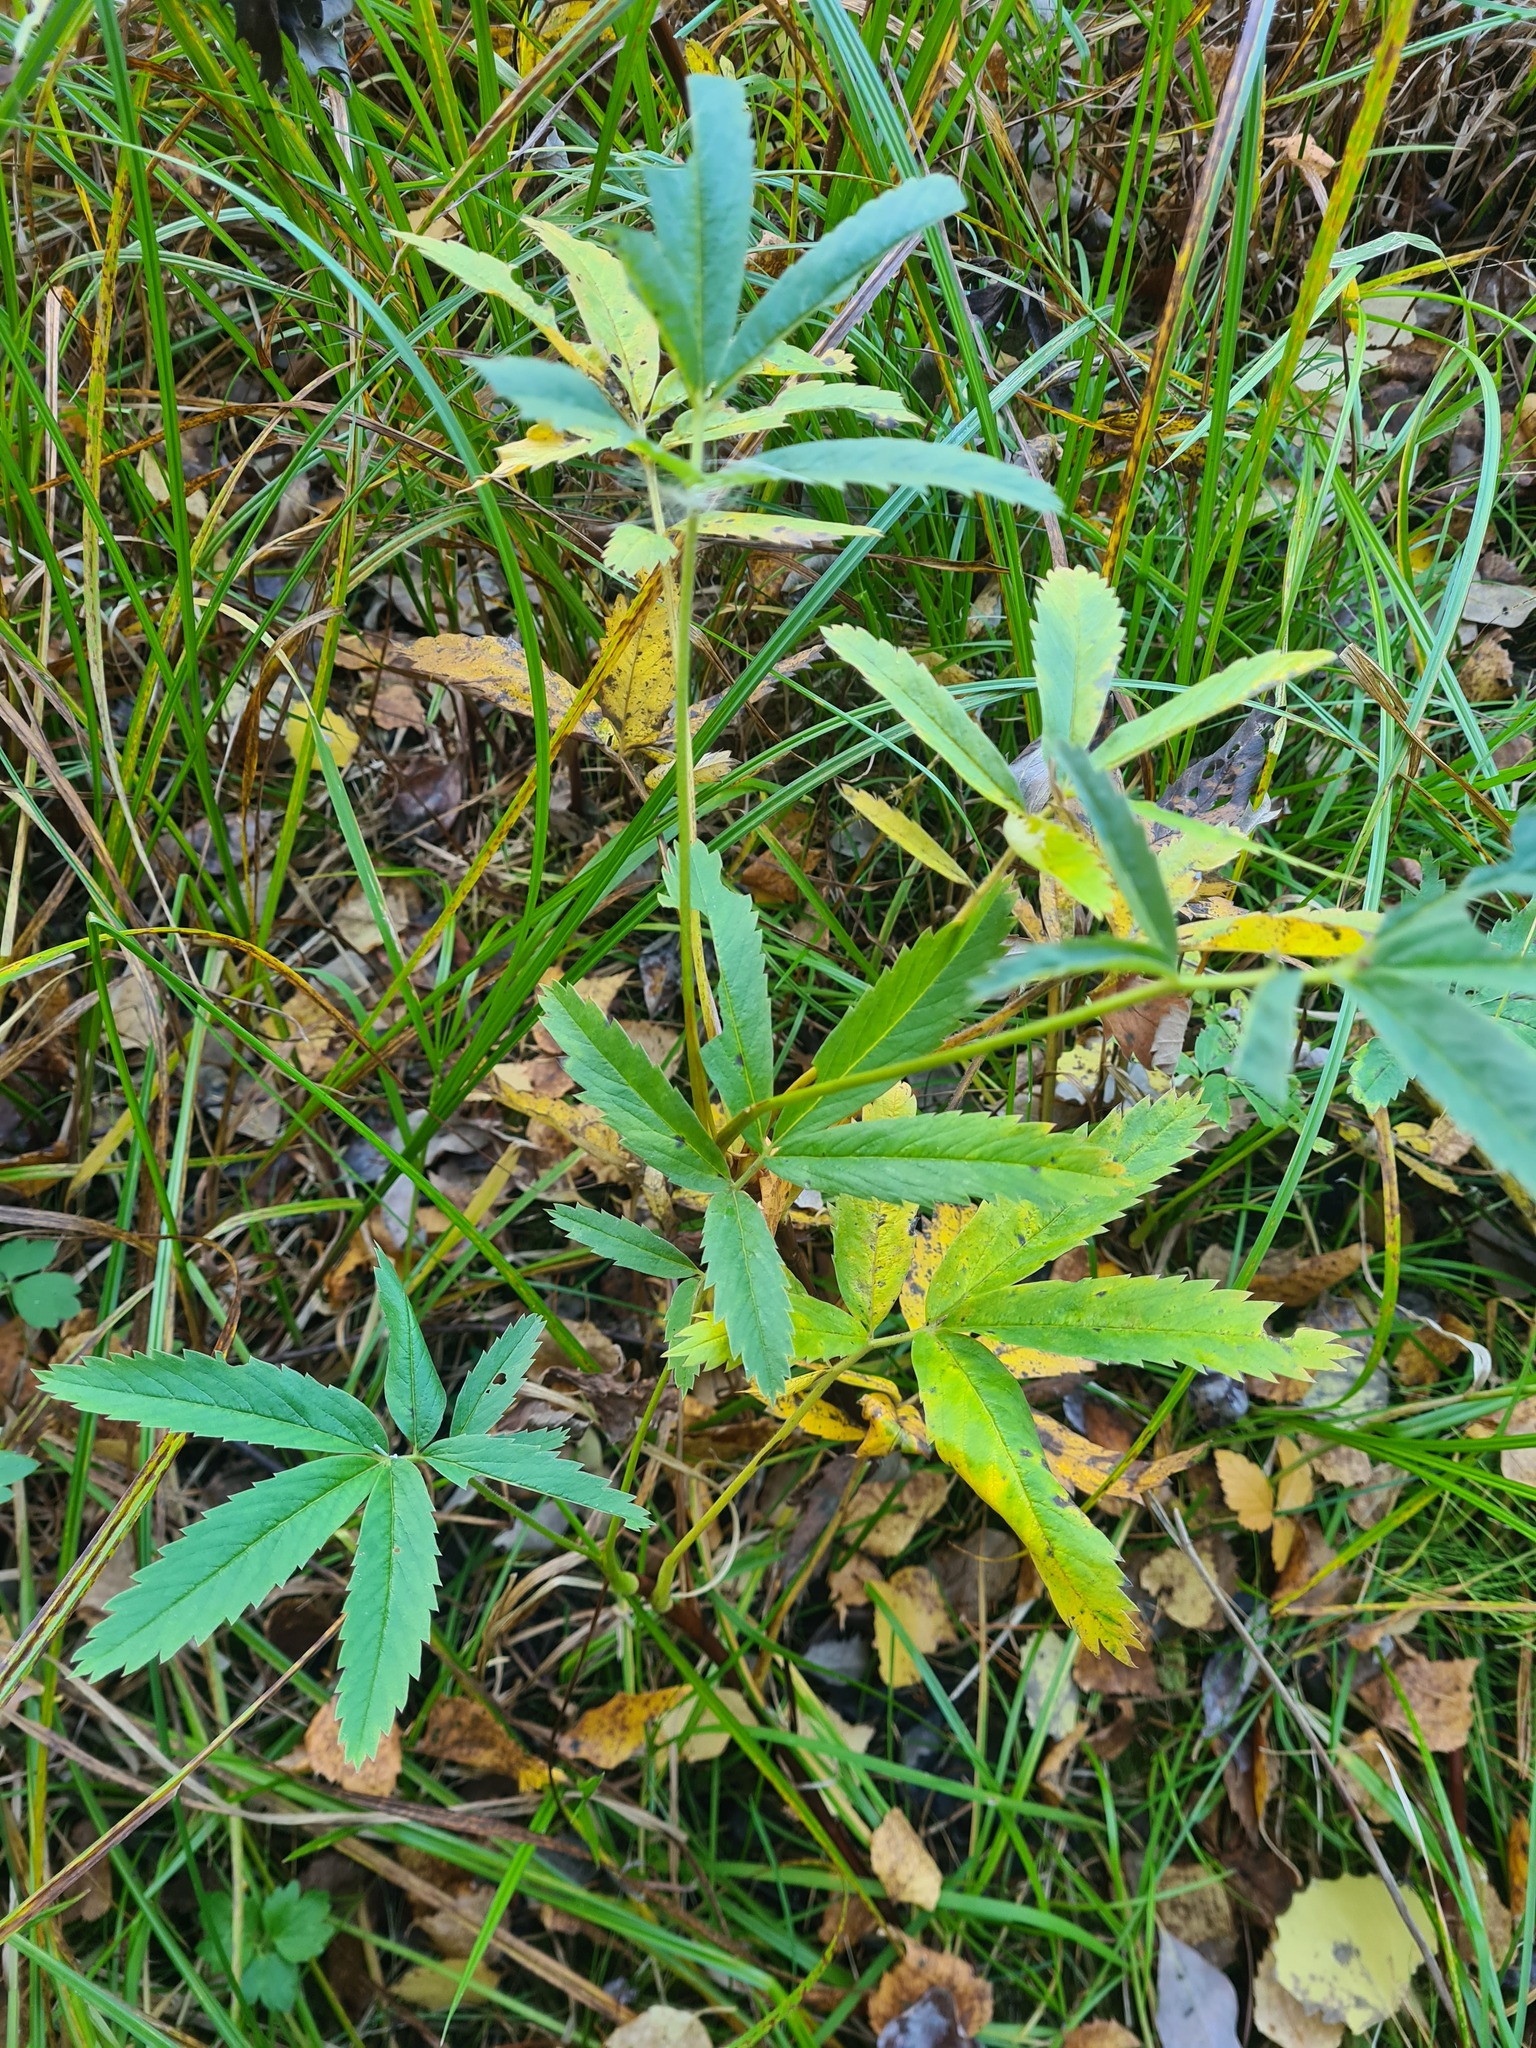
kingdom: Plantae
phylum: Tracheophyta
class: Magnoliopsida
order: Rosales
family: Rosaceae
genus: Comarum
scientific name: Comarum palustre
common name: Marsh cinquefoil
